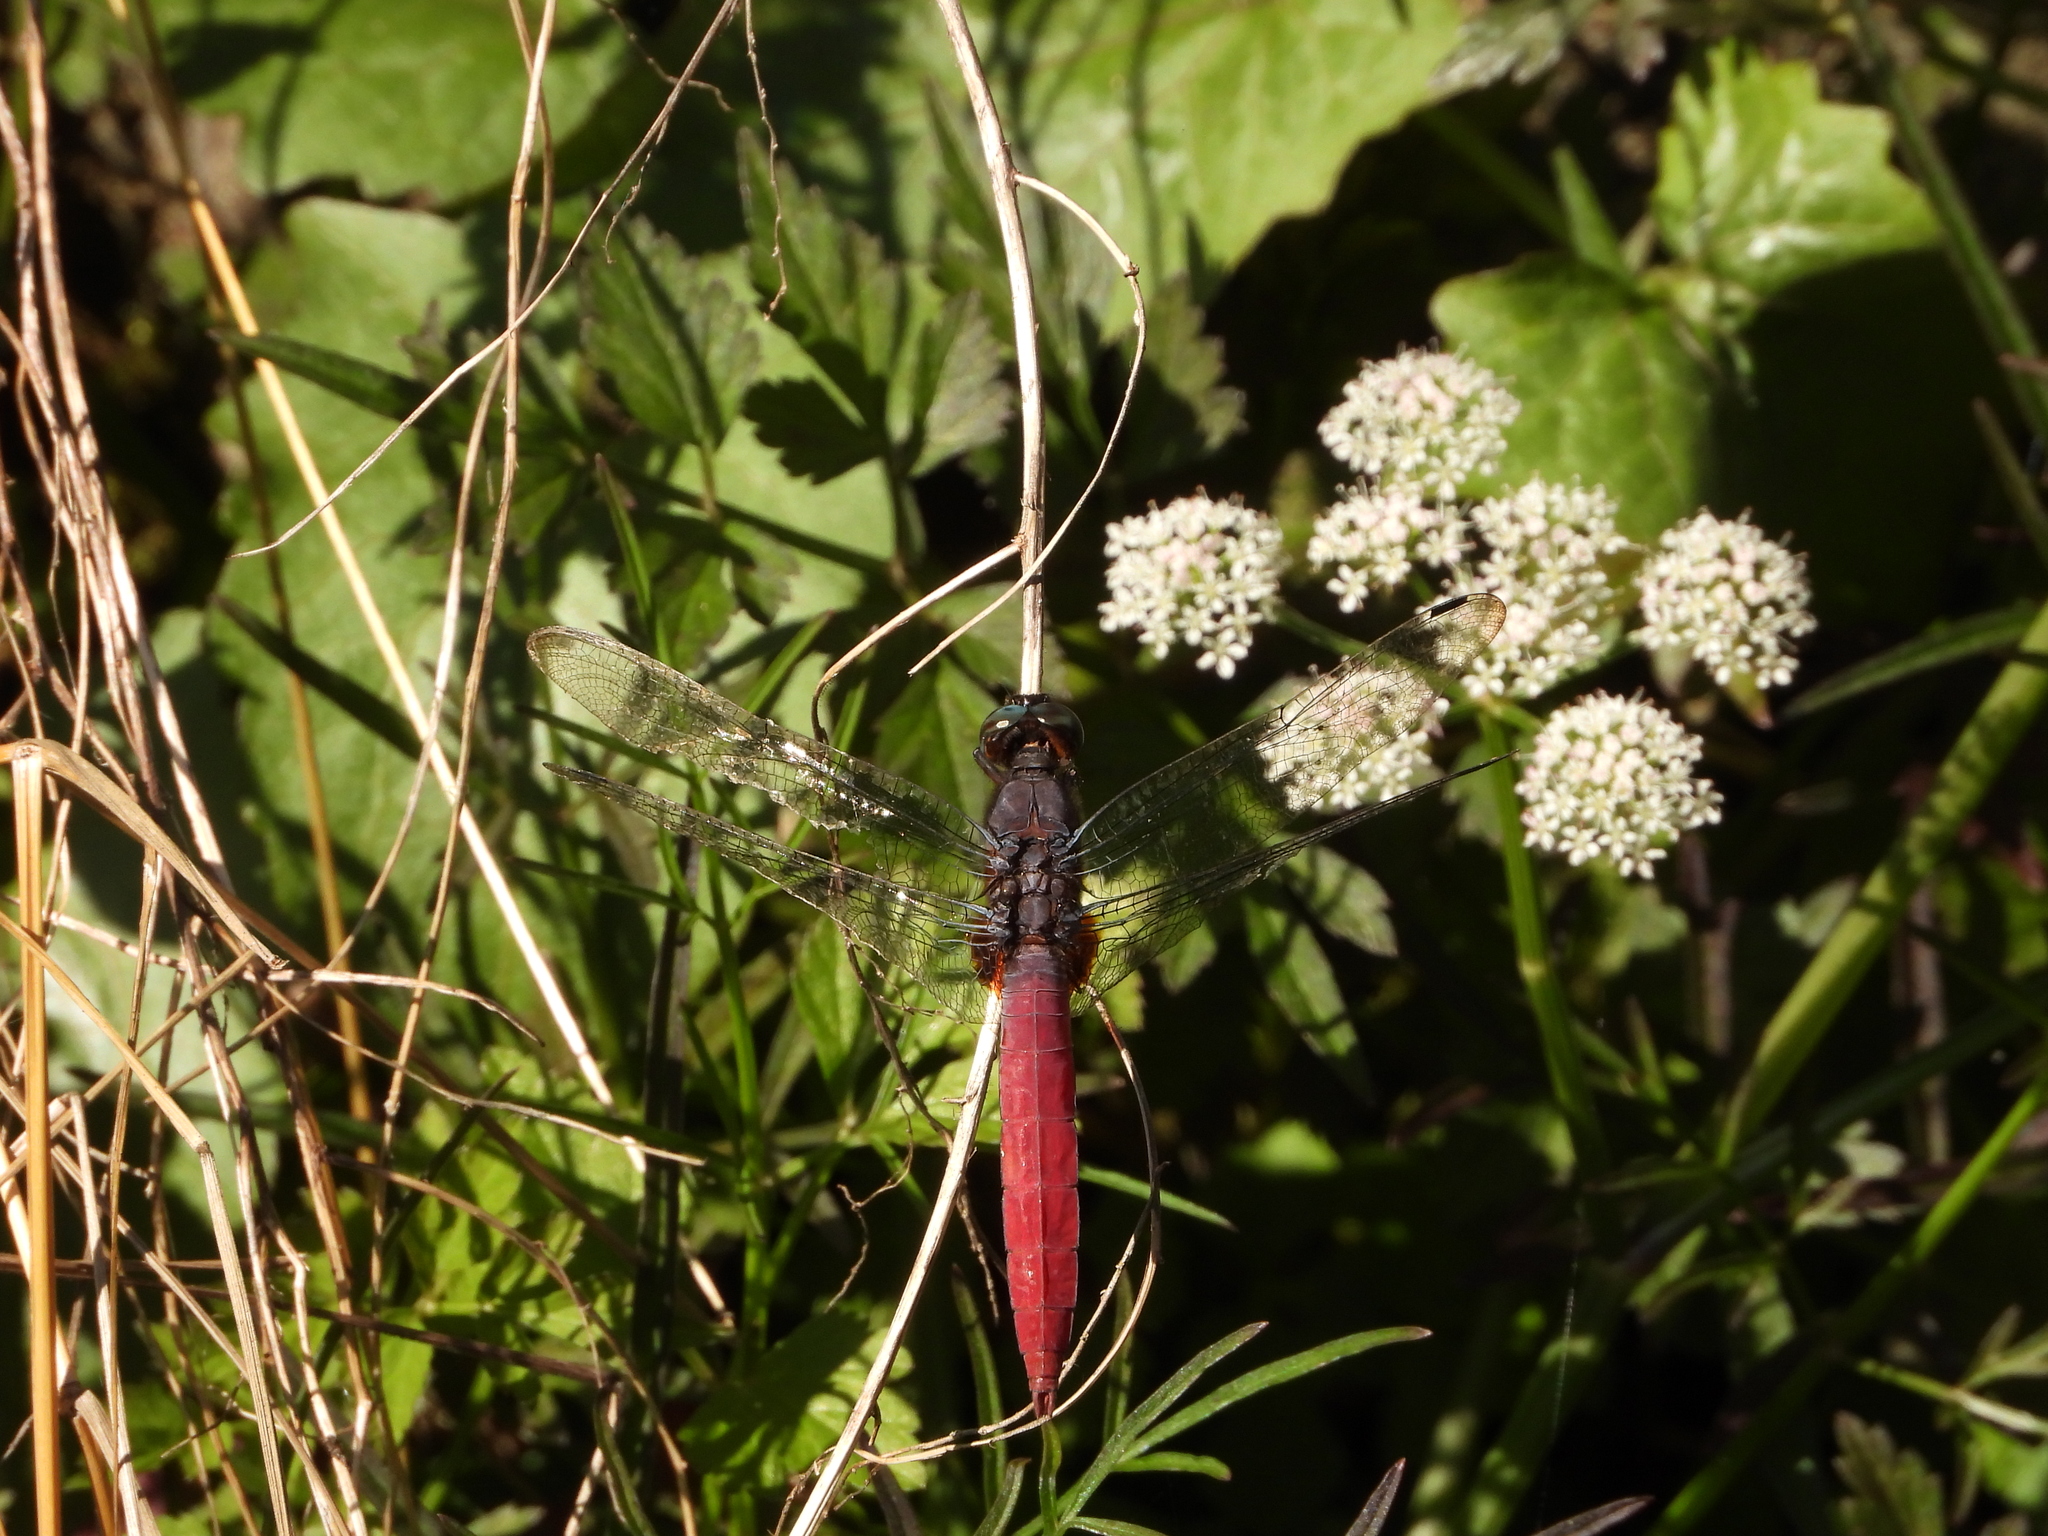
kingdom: Animalia
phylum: Arthropoda
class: Insecta
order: Odonata
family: Libellulidae
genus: Orthetrum
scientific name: Orthetrum pruinosum
